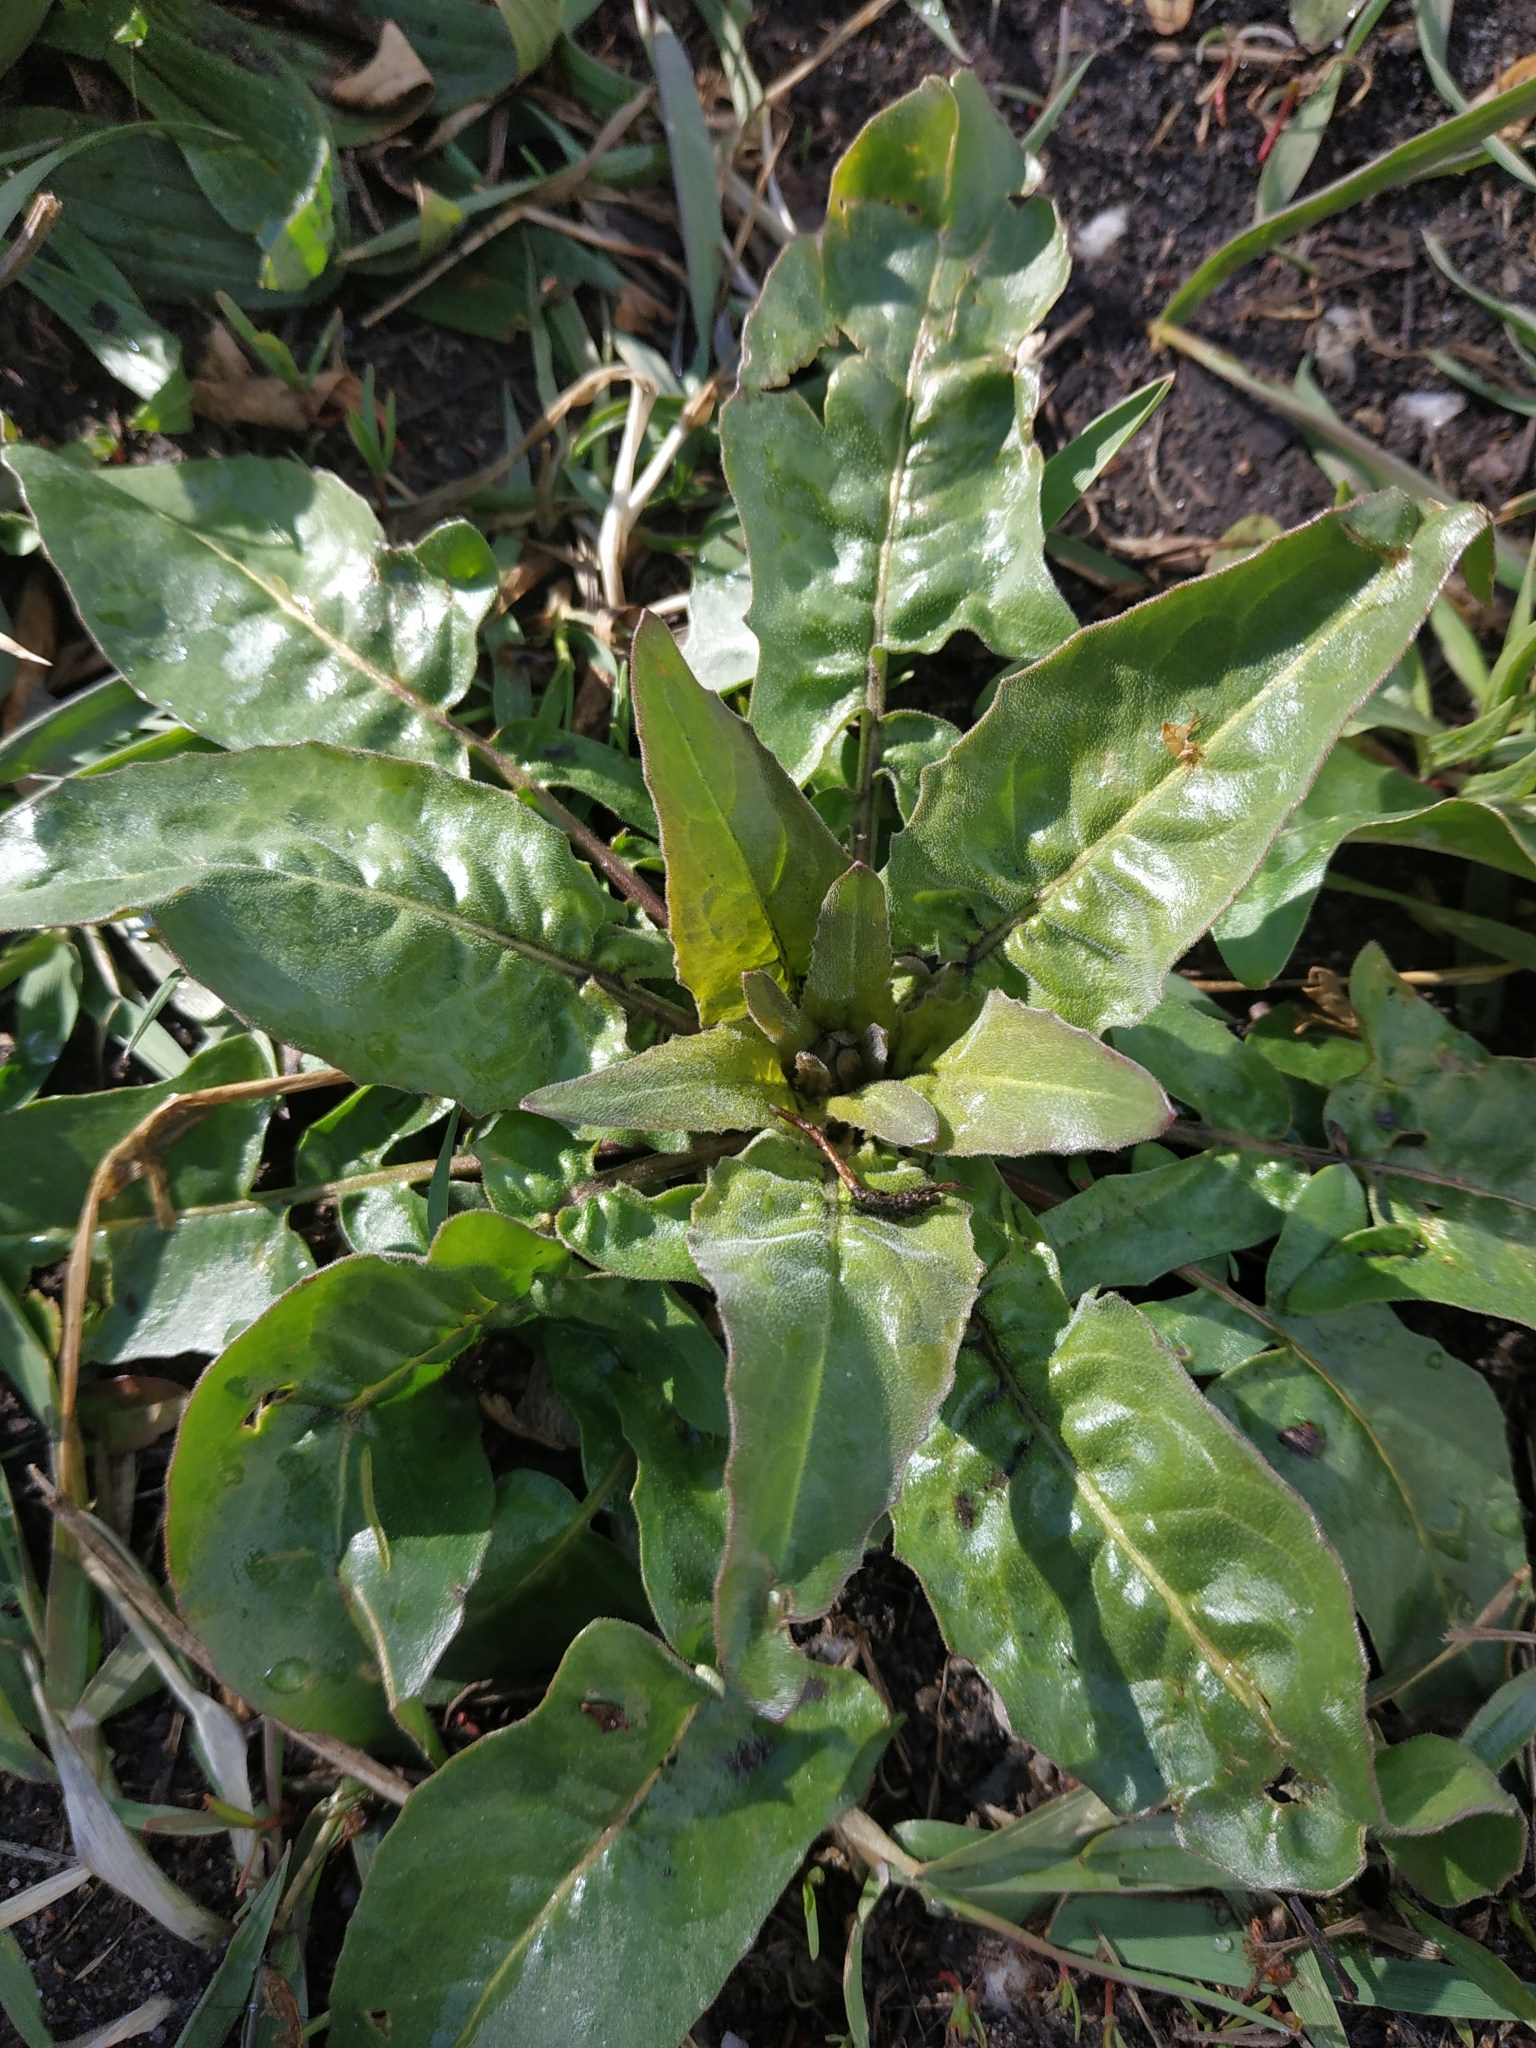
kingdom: Plantae
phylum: Tracheophyta
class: Magnoliopsida
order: Brassicales
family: Brassicaceae
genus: Bunias
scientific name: Bunias orientalis
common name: Warty-cabbage
